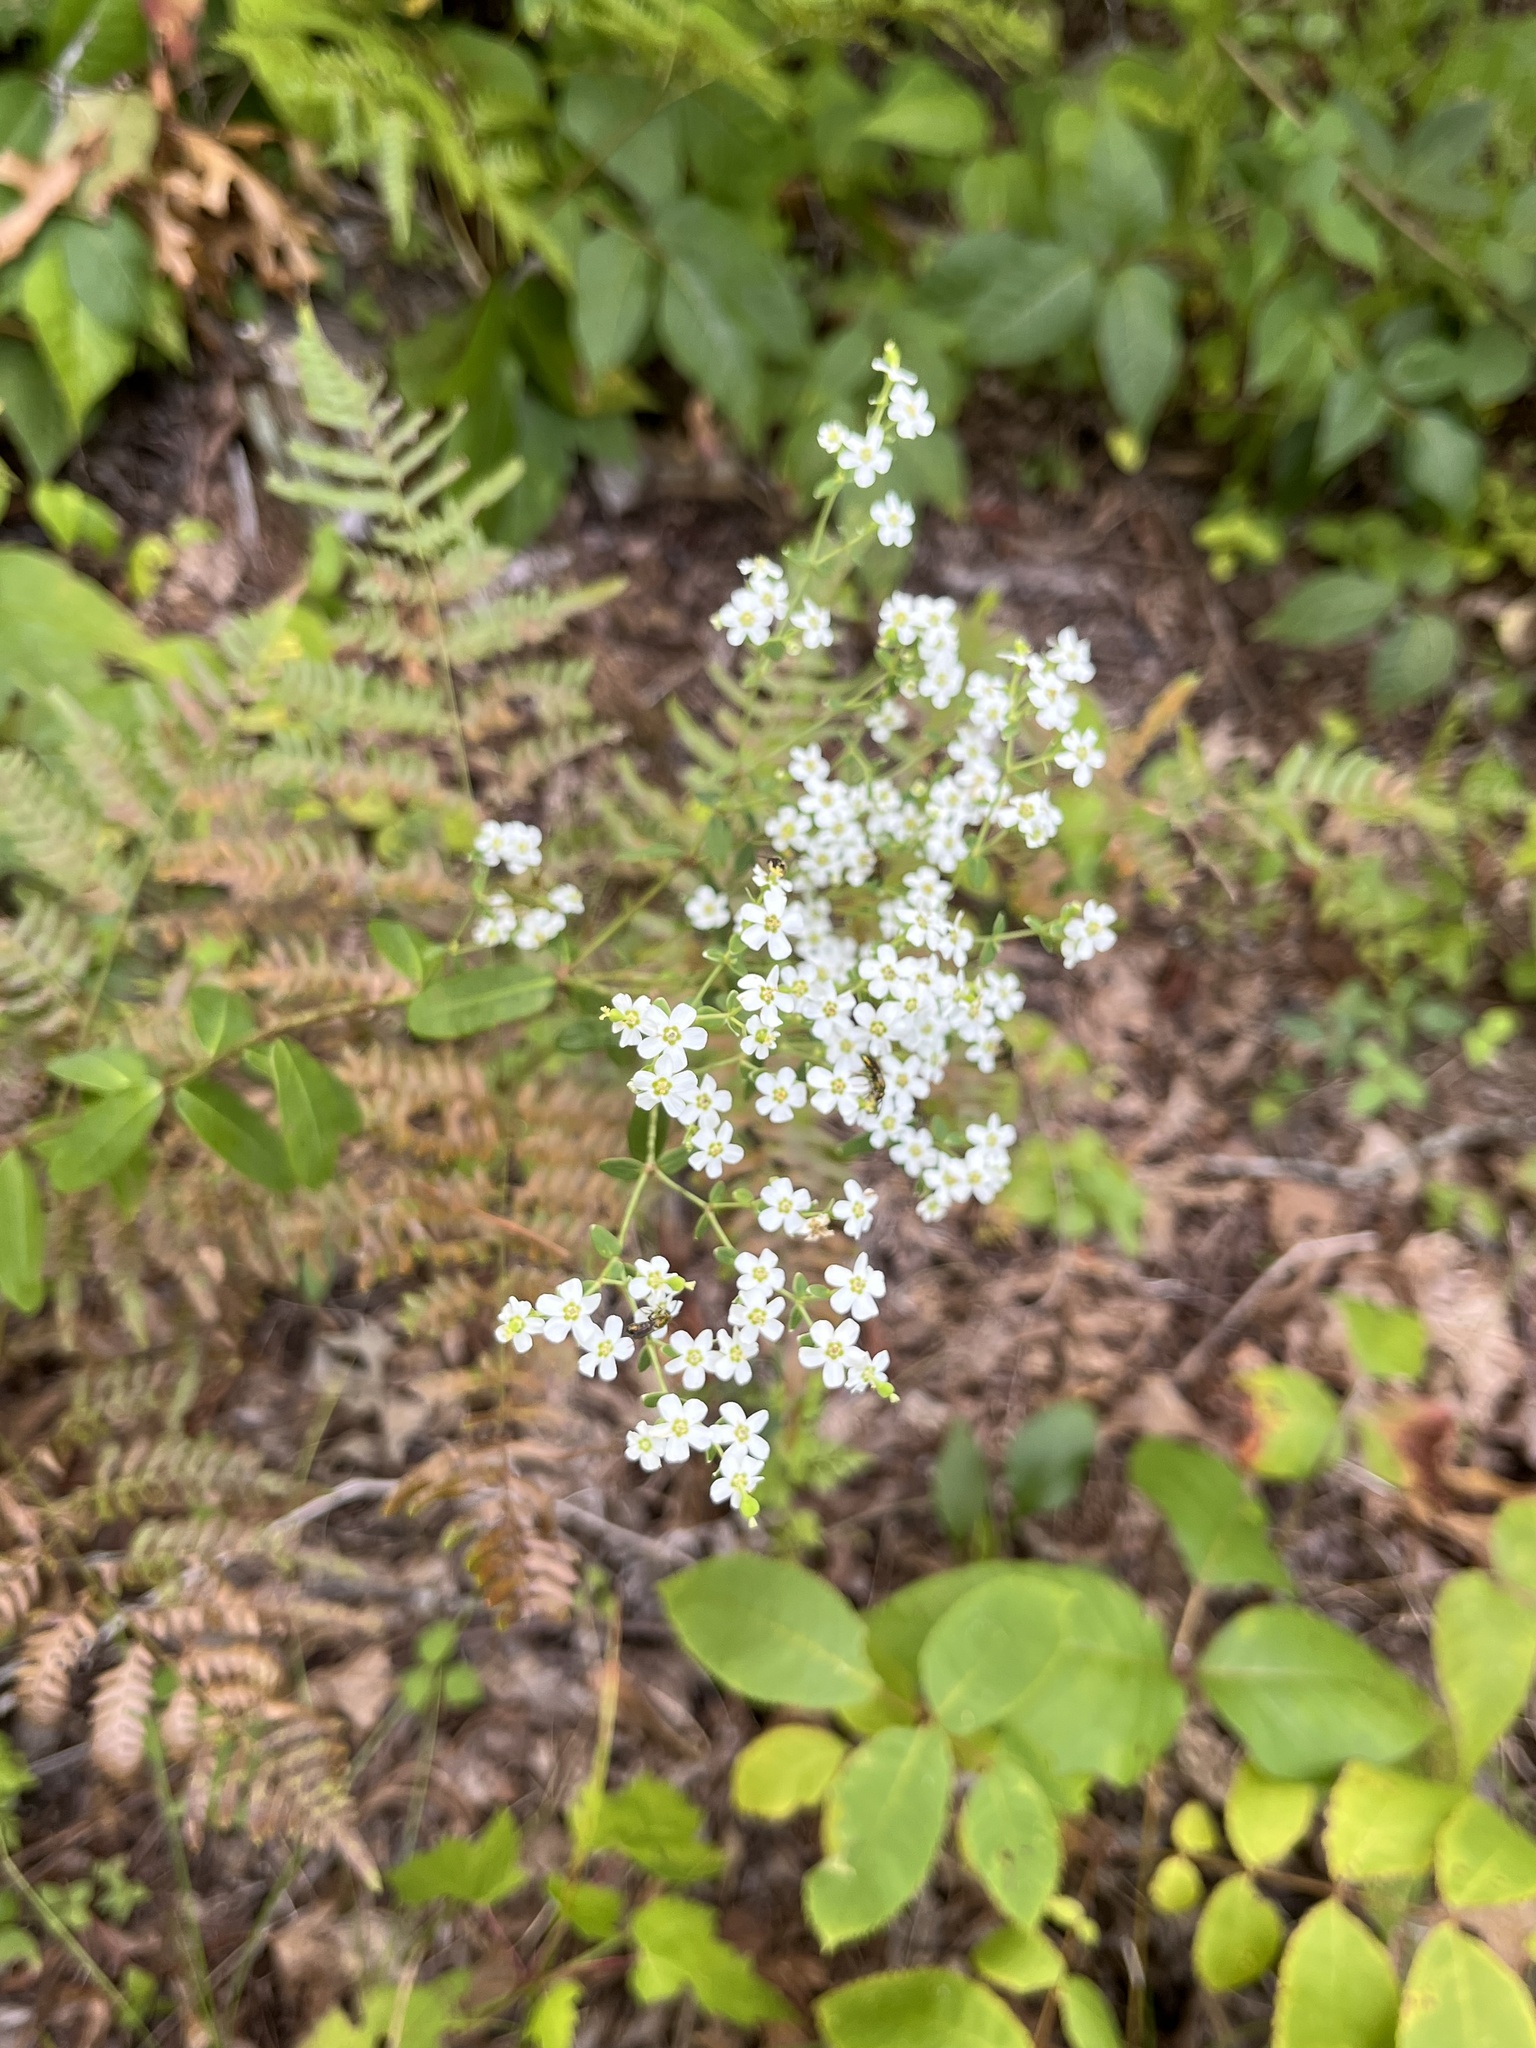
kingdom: Plantae
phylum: Tracheophyta
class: Magnoliopsida
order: Malpighiales
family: Euphorbiaceae
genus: Euphorbia
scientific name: Euphorbia corollata
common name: Flowering spurge
